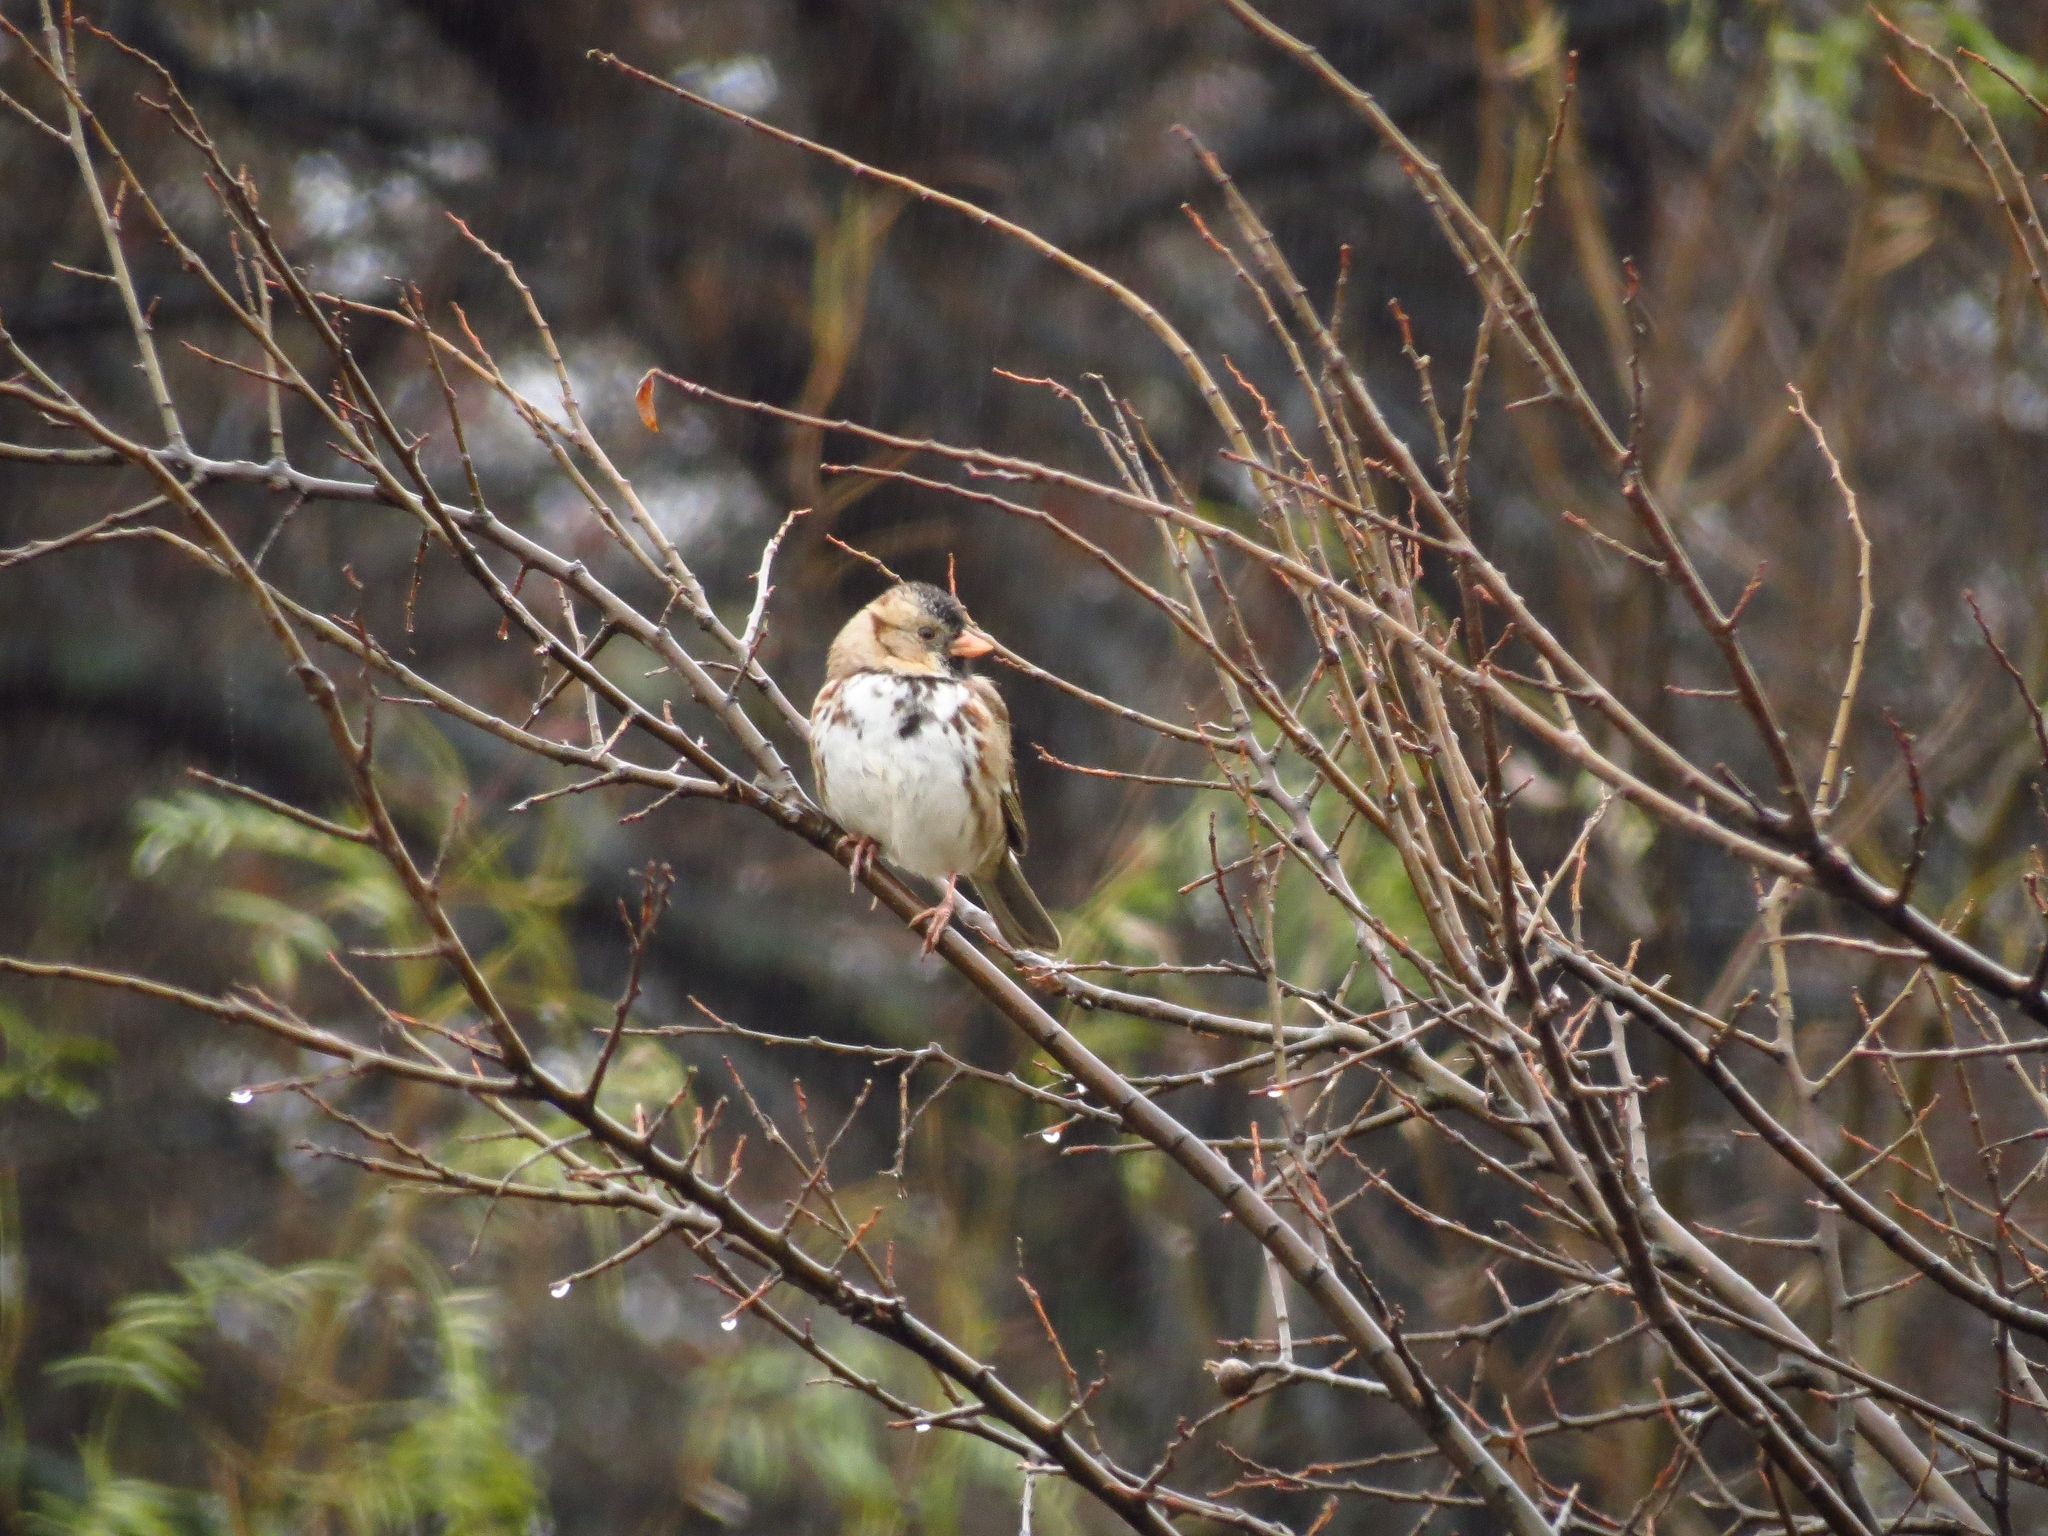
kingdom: Animalia
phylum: Chordata
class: Aves
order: Passeriformes
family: Passerellidae
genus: Zonotrichia
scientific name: Zonotrichia querula
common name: Harris's sparrow
